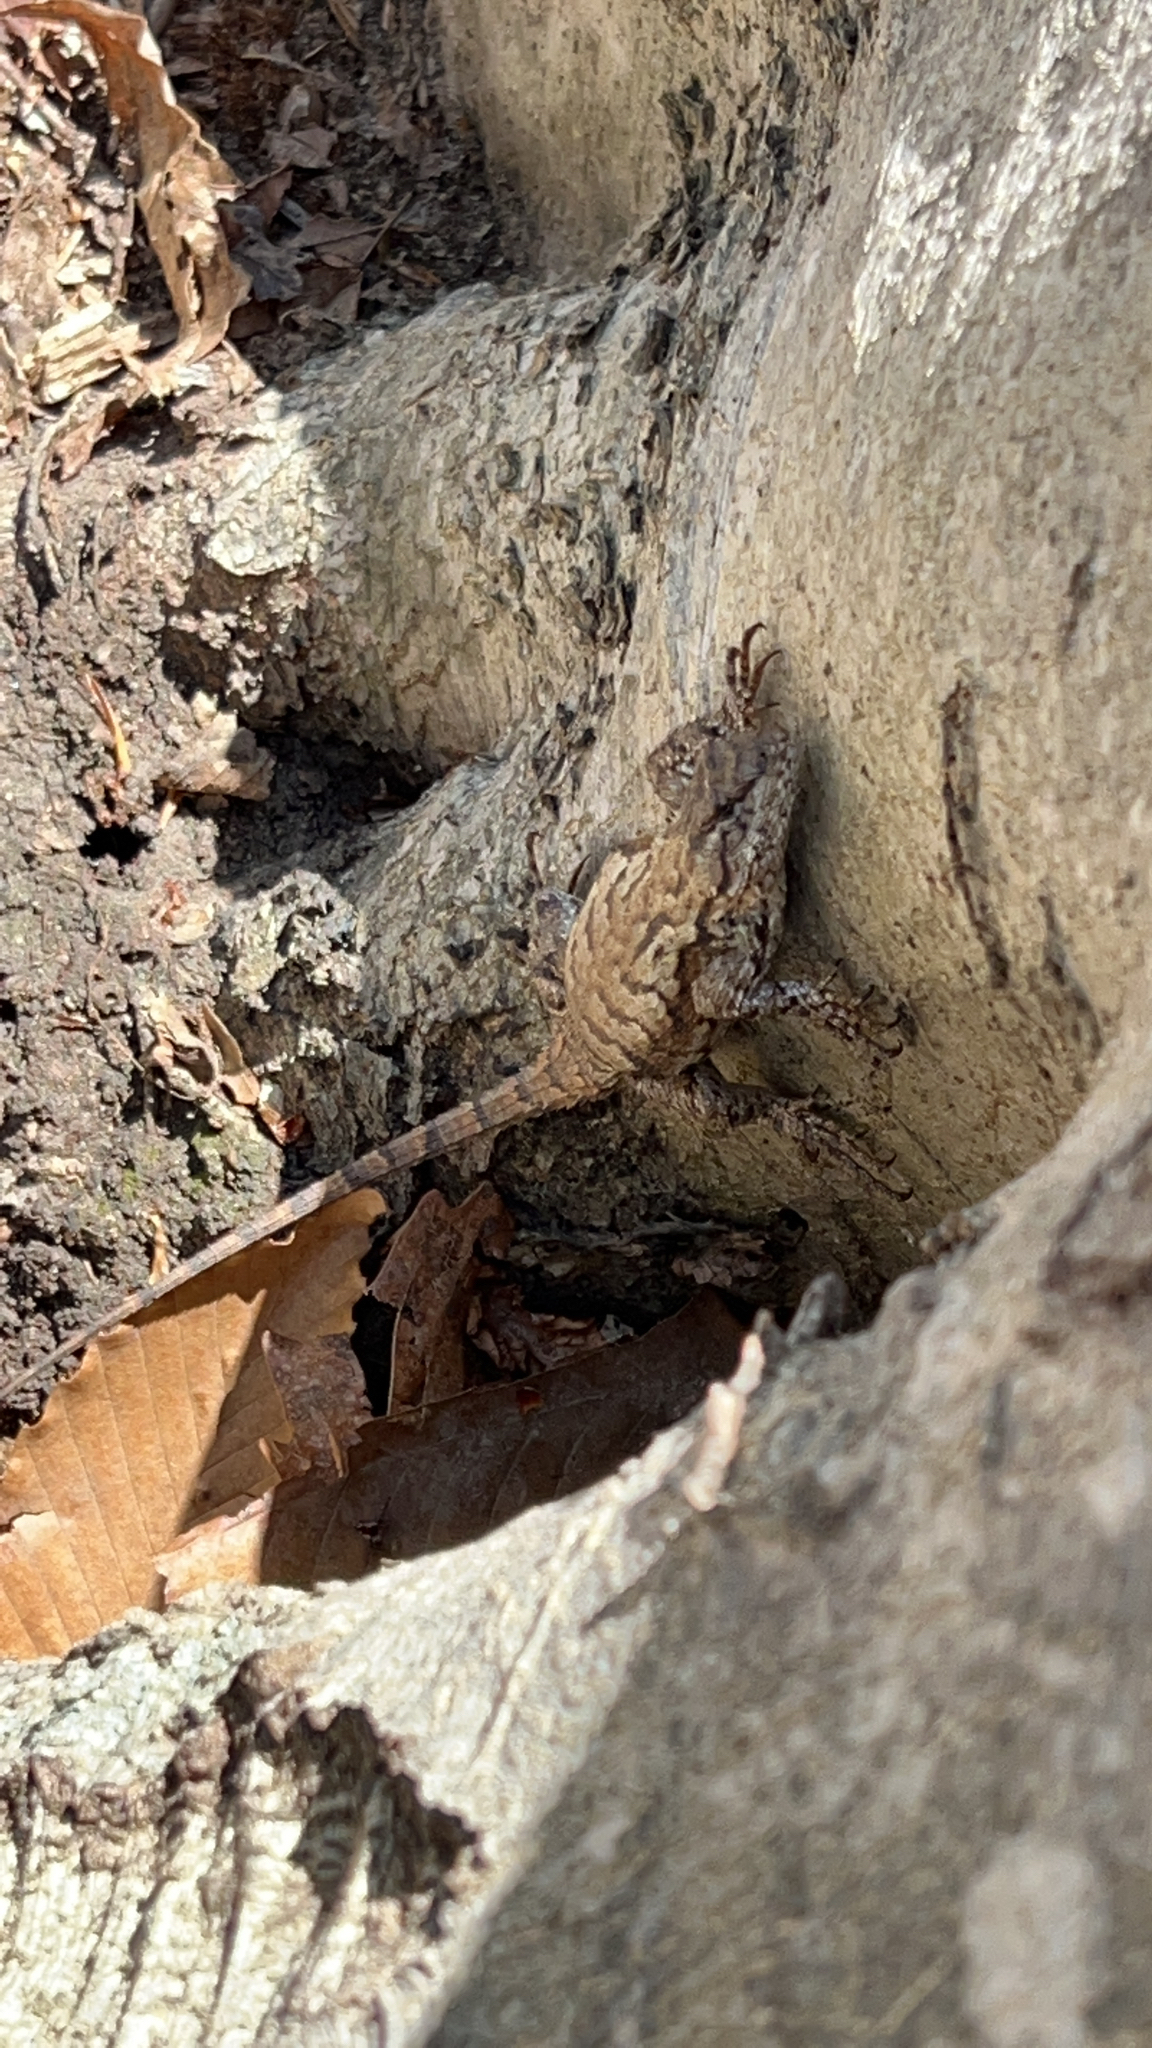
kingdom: Animalia
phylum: Chordata
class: Squamata
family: Phrynosomatidae
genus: Sceloporus
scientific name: Sceloporus undulatus
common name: Eastern fence lizard
